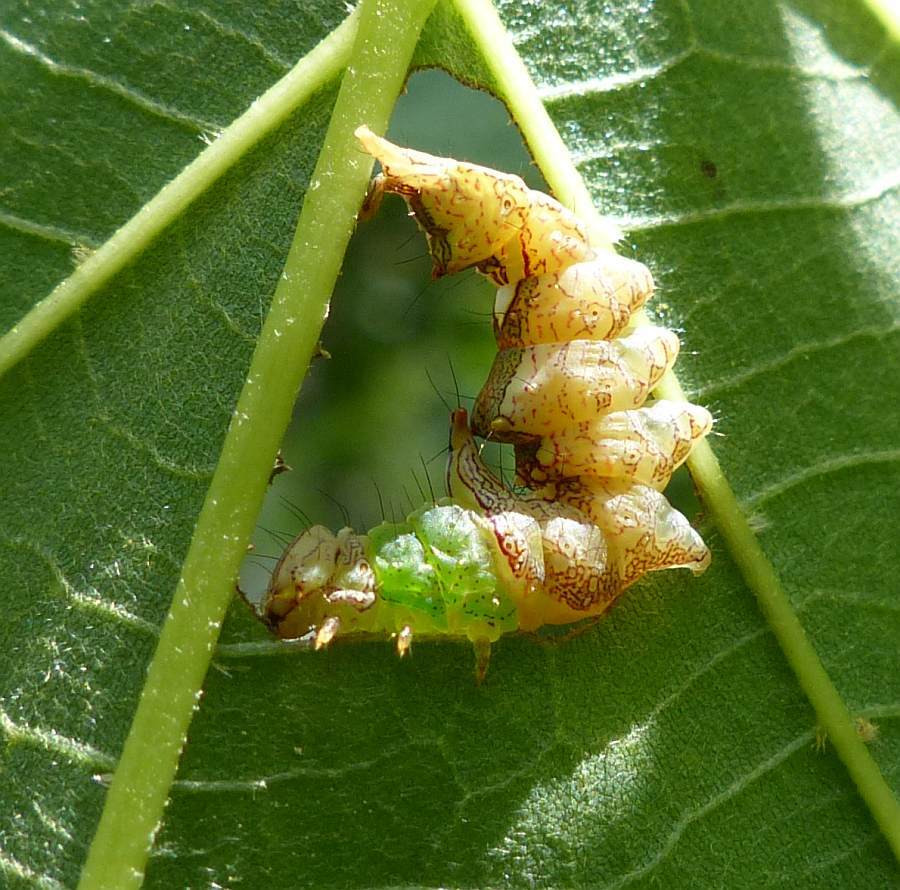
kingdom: Animalia
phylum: Arthropoda
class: Insecta
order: Lepidoptera
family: Notodontidae
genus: Schizura
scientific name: Schizura ipomaeae
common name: Morning-glory prominent
